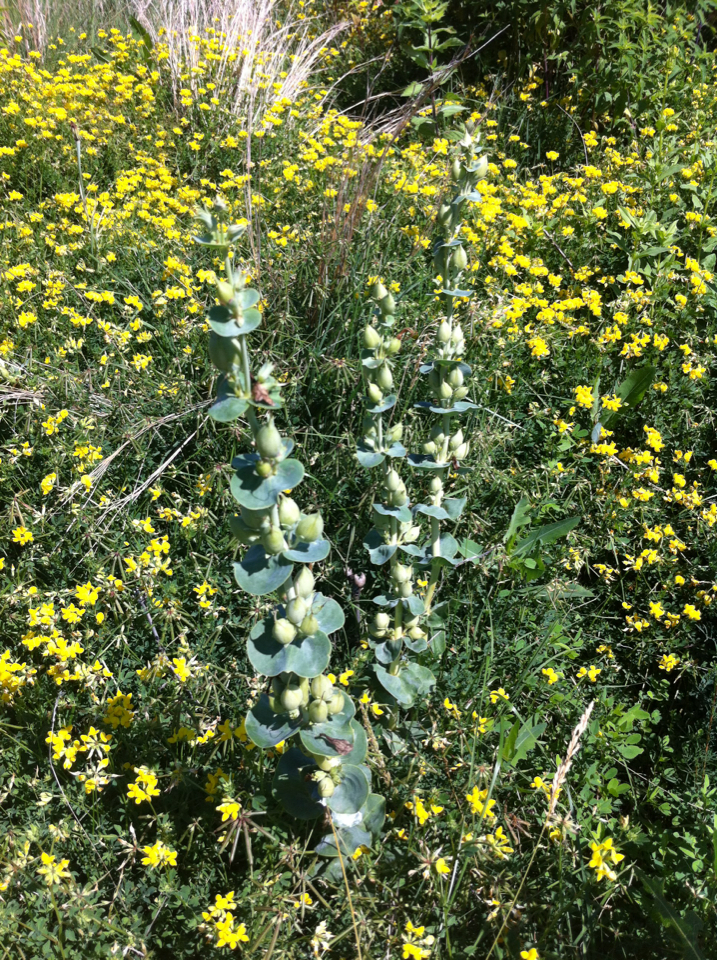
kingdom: Plantae
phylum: Tracheophyta
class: Magnoliopsida
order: Lamiales
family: Plantaginaceae
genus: Penstemon
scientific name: Penstemon
